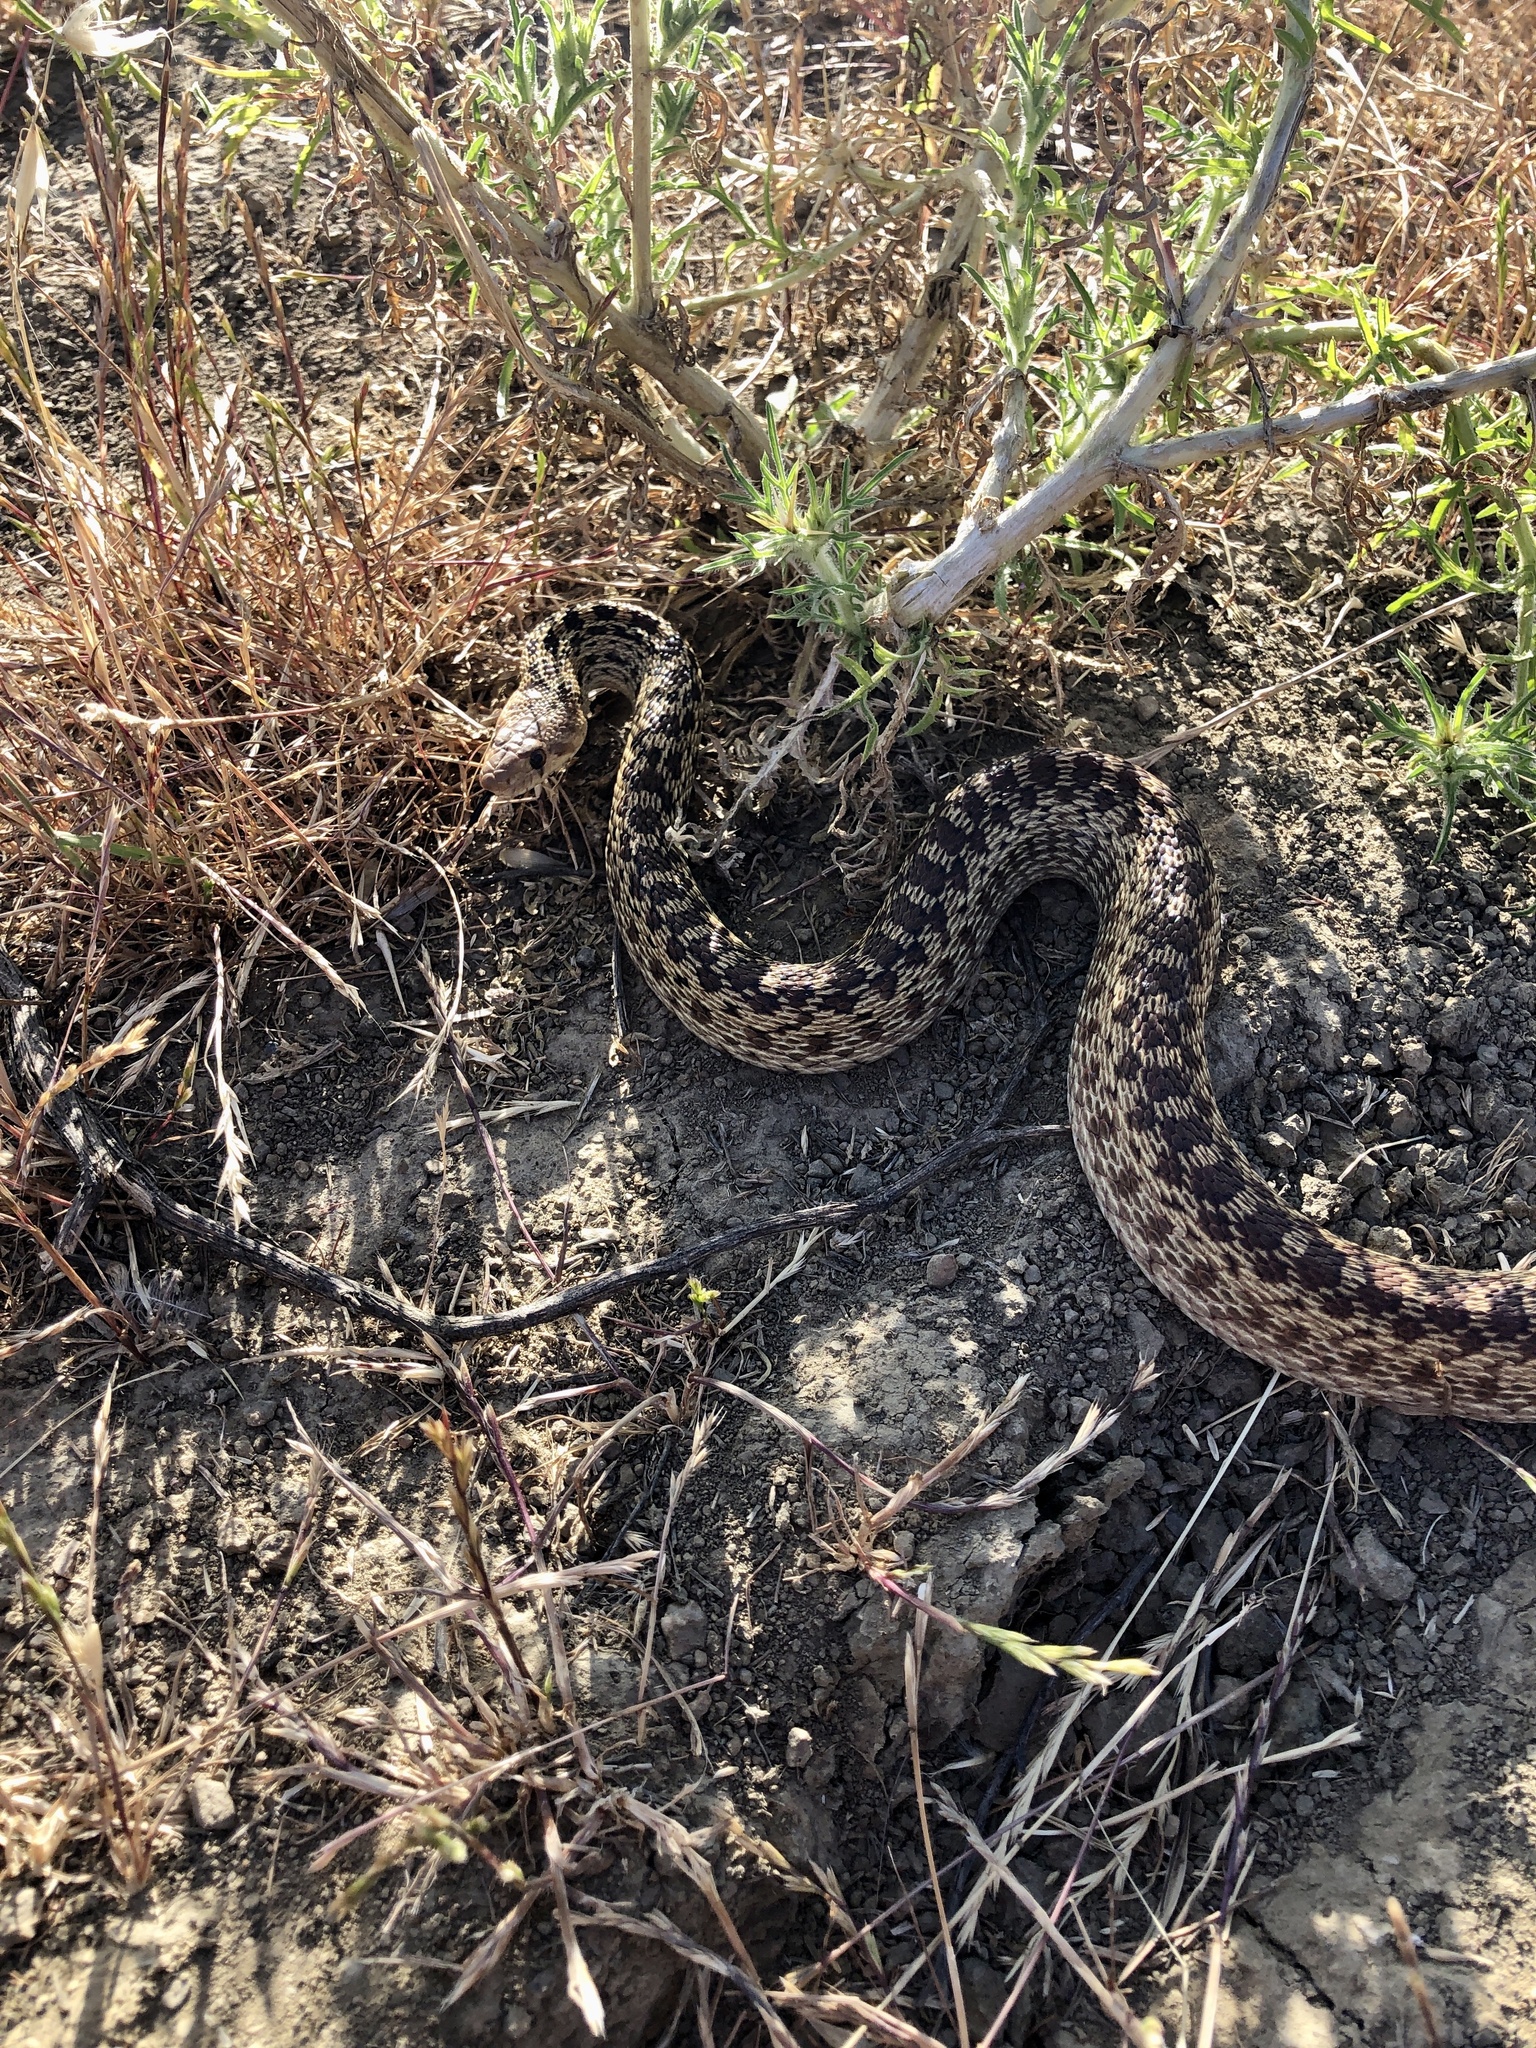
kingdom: Animalia
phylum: Chordata
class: Squamata
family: Colubridae
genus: Pituophis
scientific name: Pituophis catenifer
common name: Gopher snake
